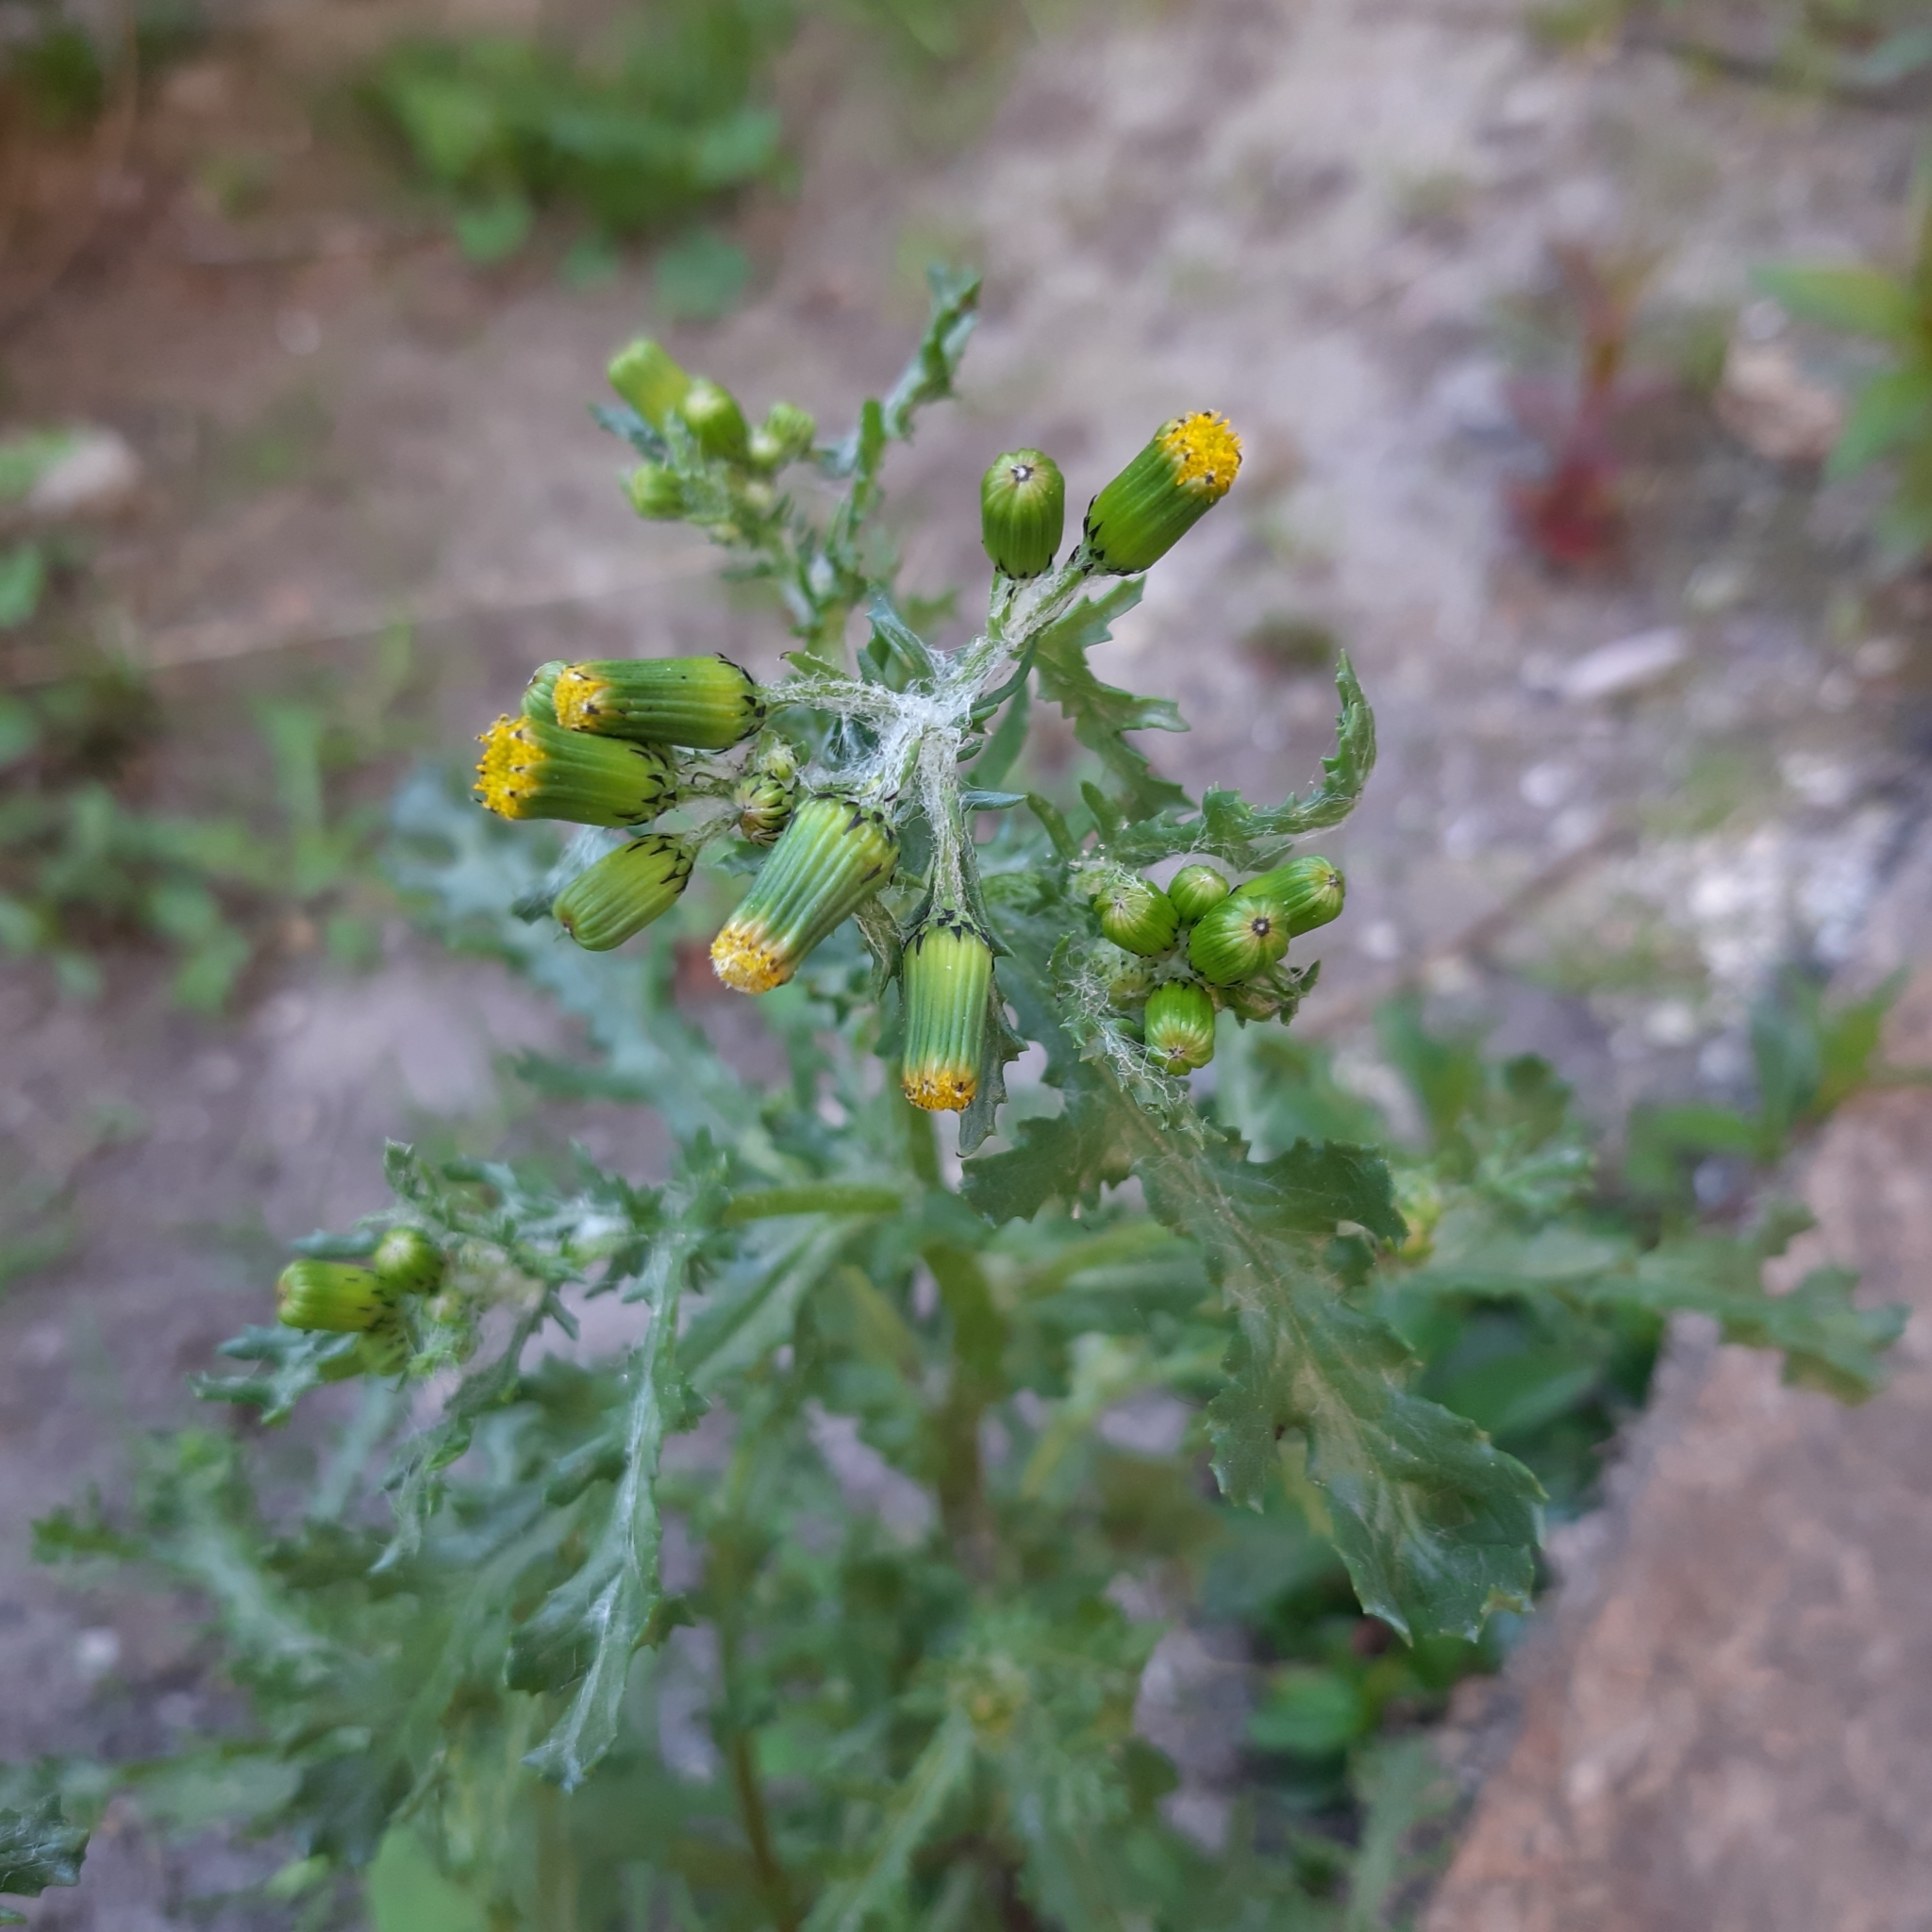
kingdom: Plantae
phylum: Tracheophyta
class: Magnoliopsida
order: Asterales
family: Asteraceae
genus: Senecio
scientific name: Senecio vulgaris
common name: Old-man-in-the-spring
